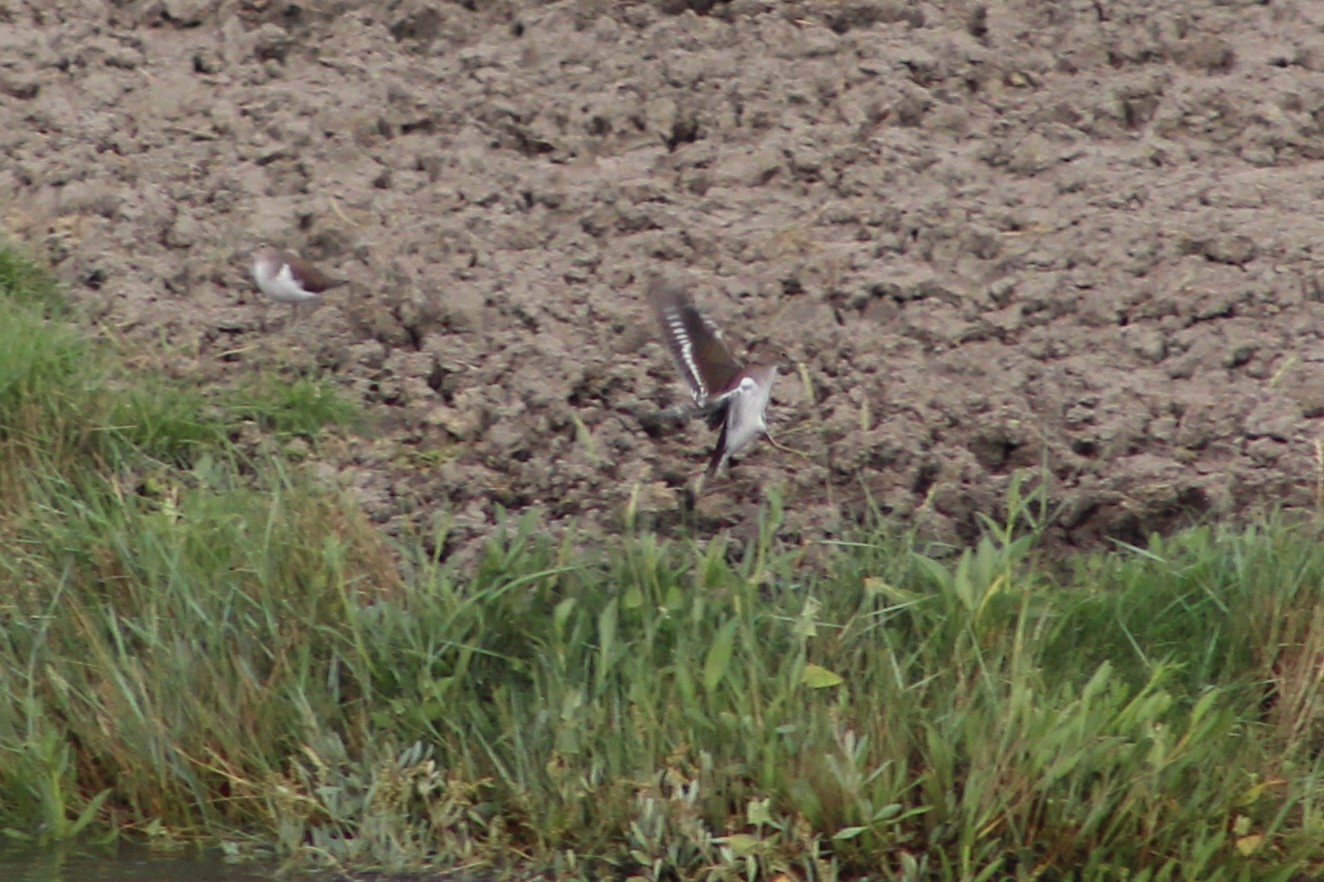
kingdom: Animalia
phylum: Chordata
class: Aves
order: Charadriiformes
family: Scolopacidae
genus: Actitis
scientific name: Actitis hypoleucos
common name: Common sandpiper
